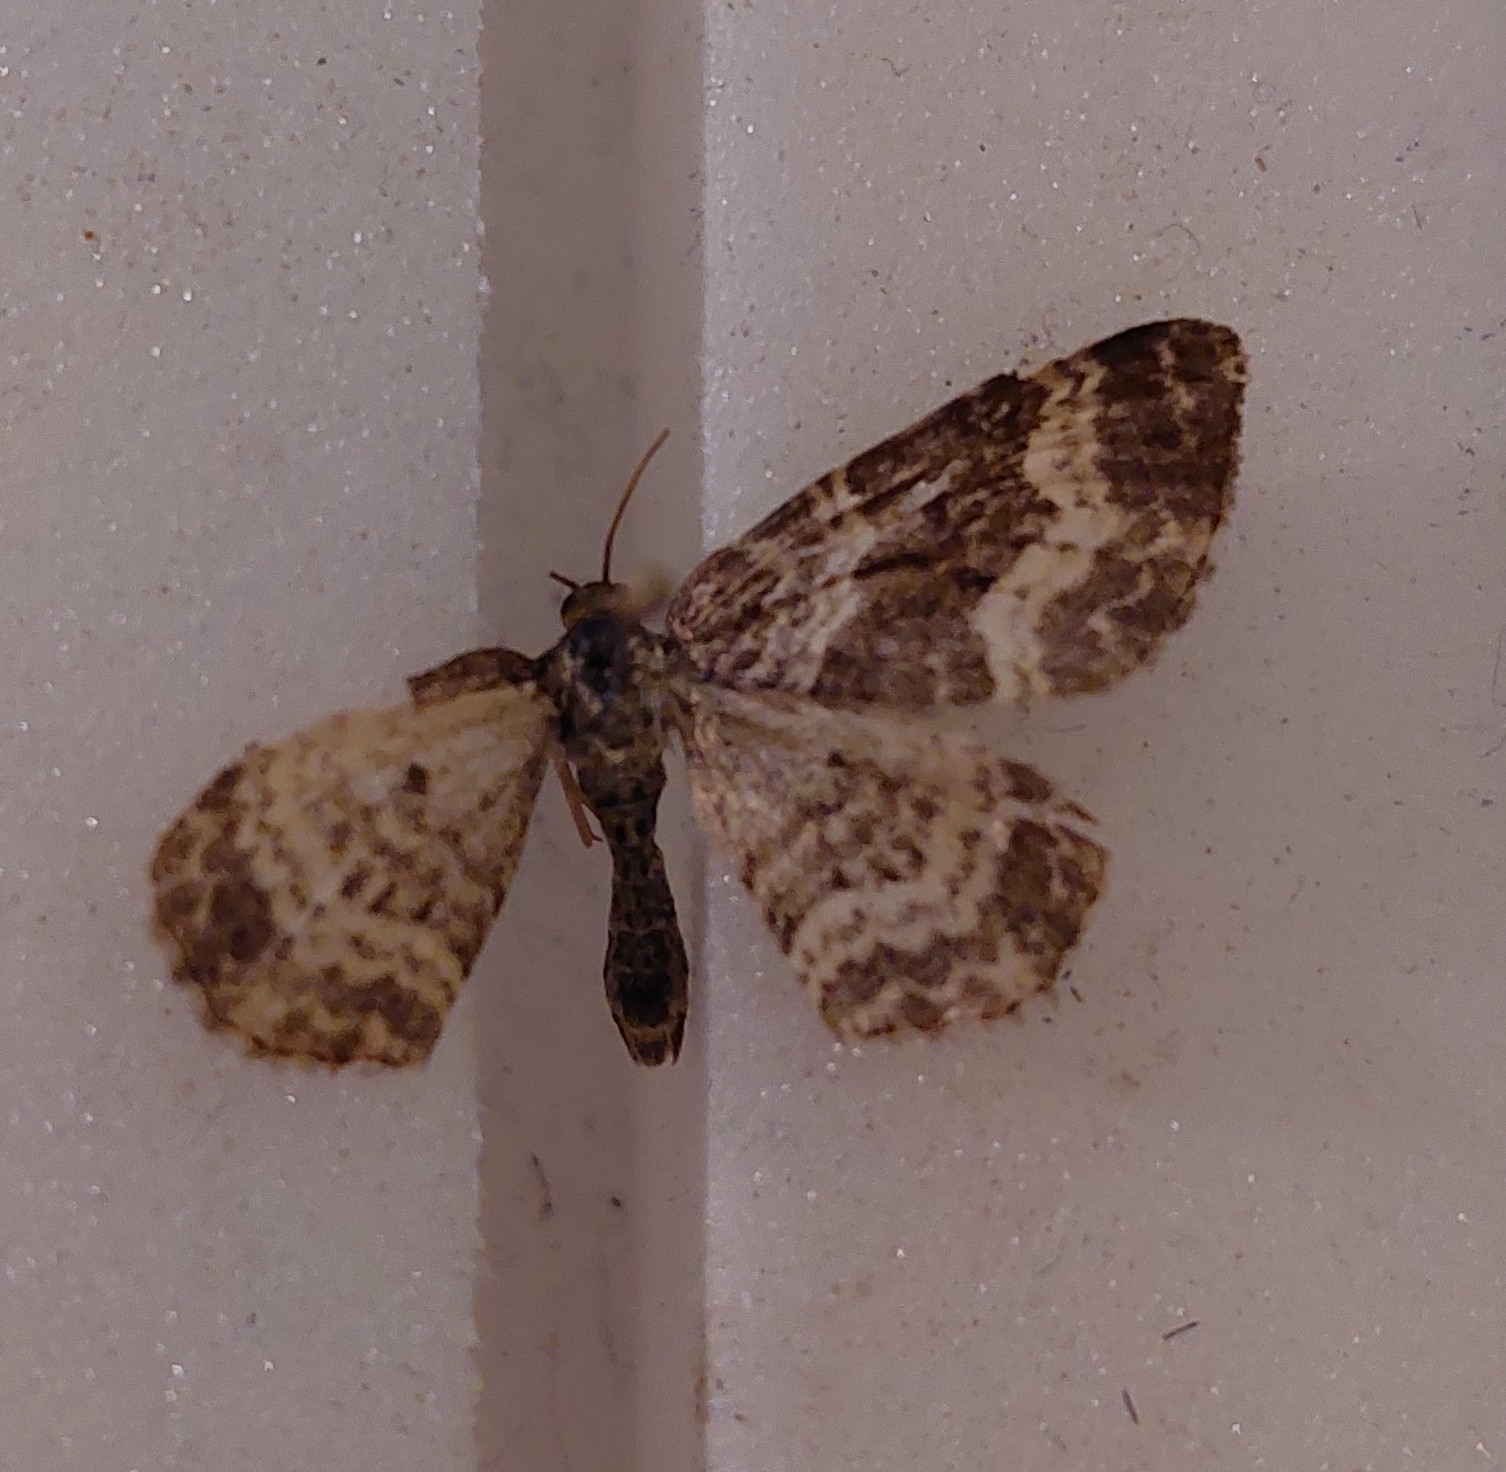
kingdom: Animalia
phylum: Arthropoda
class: Insecta
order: Lepidoptera
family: Geometridae
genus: Epirrhoe
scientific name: Epirrhoe alternata
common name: Common carpet
